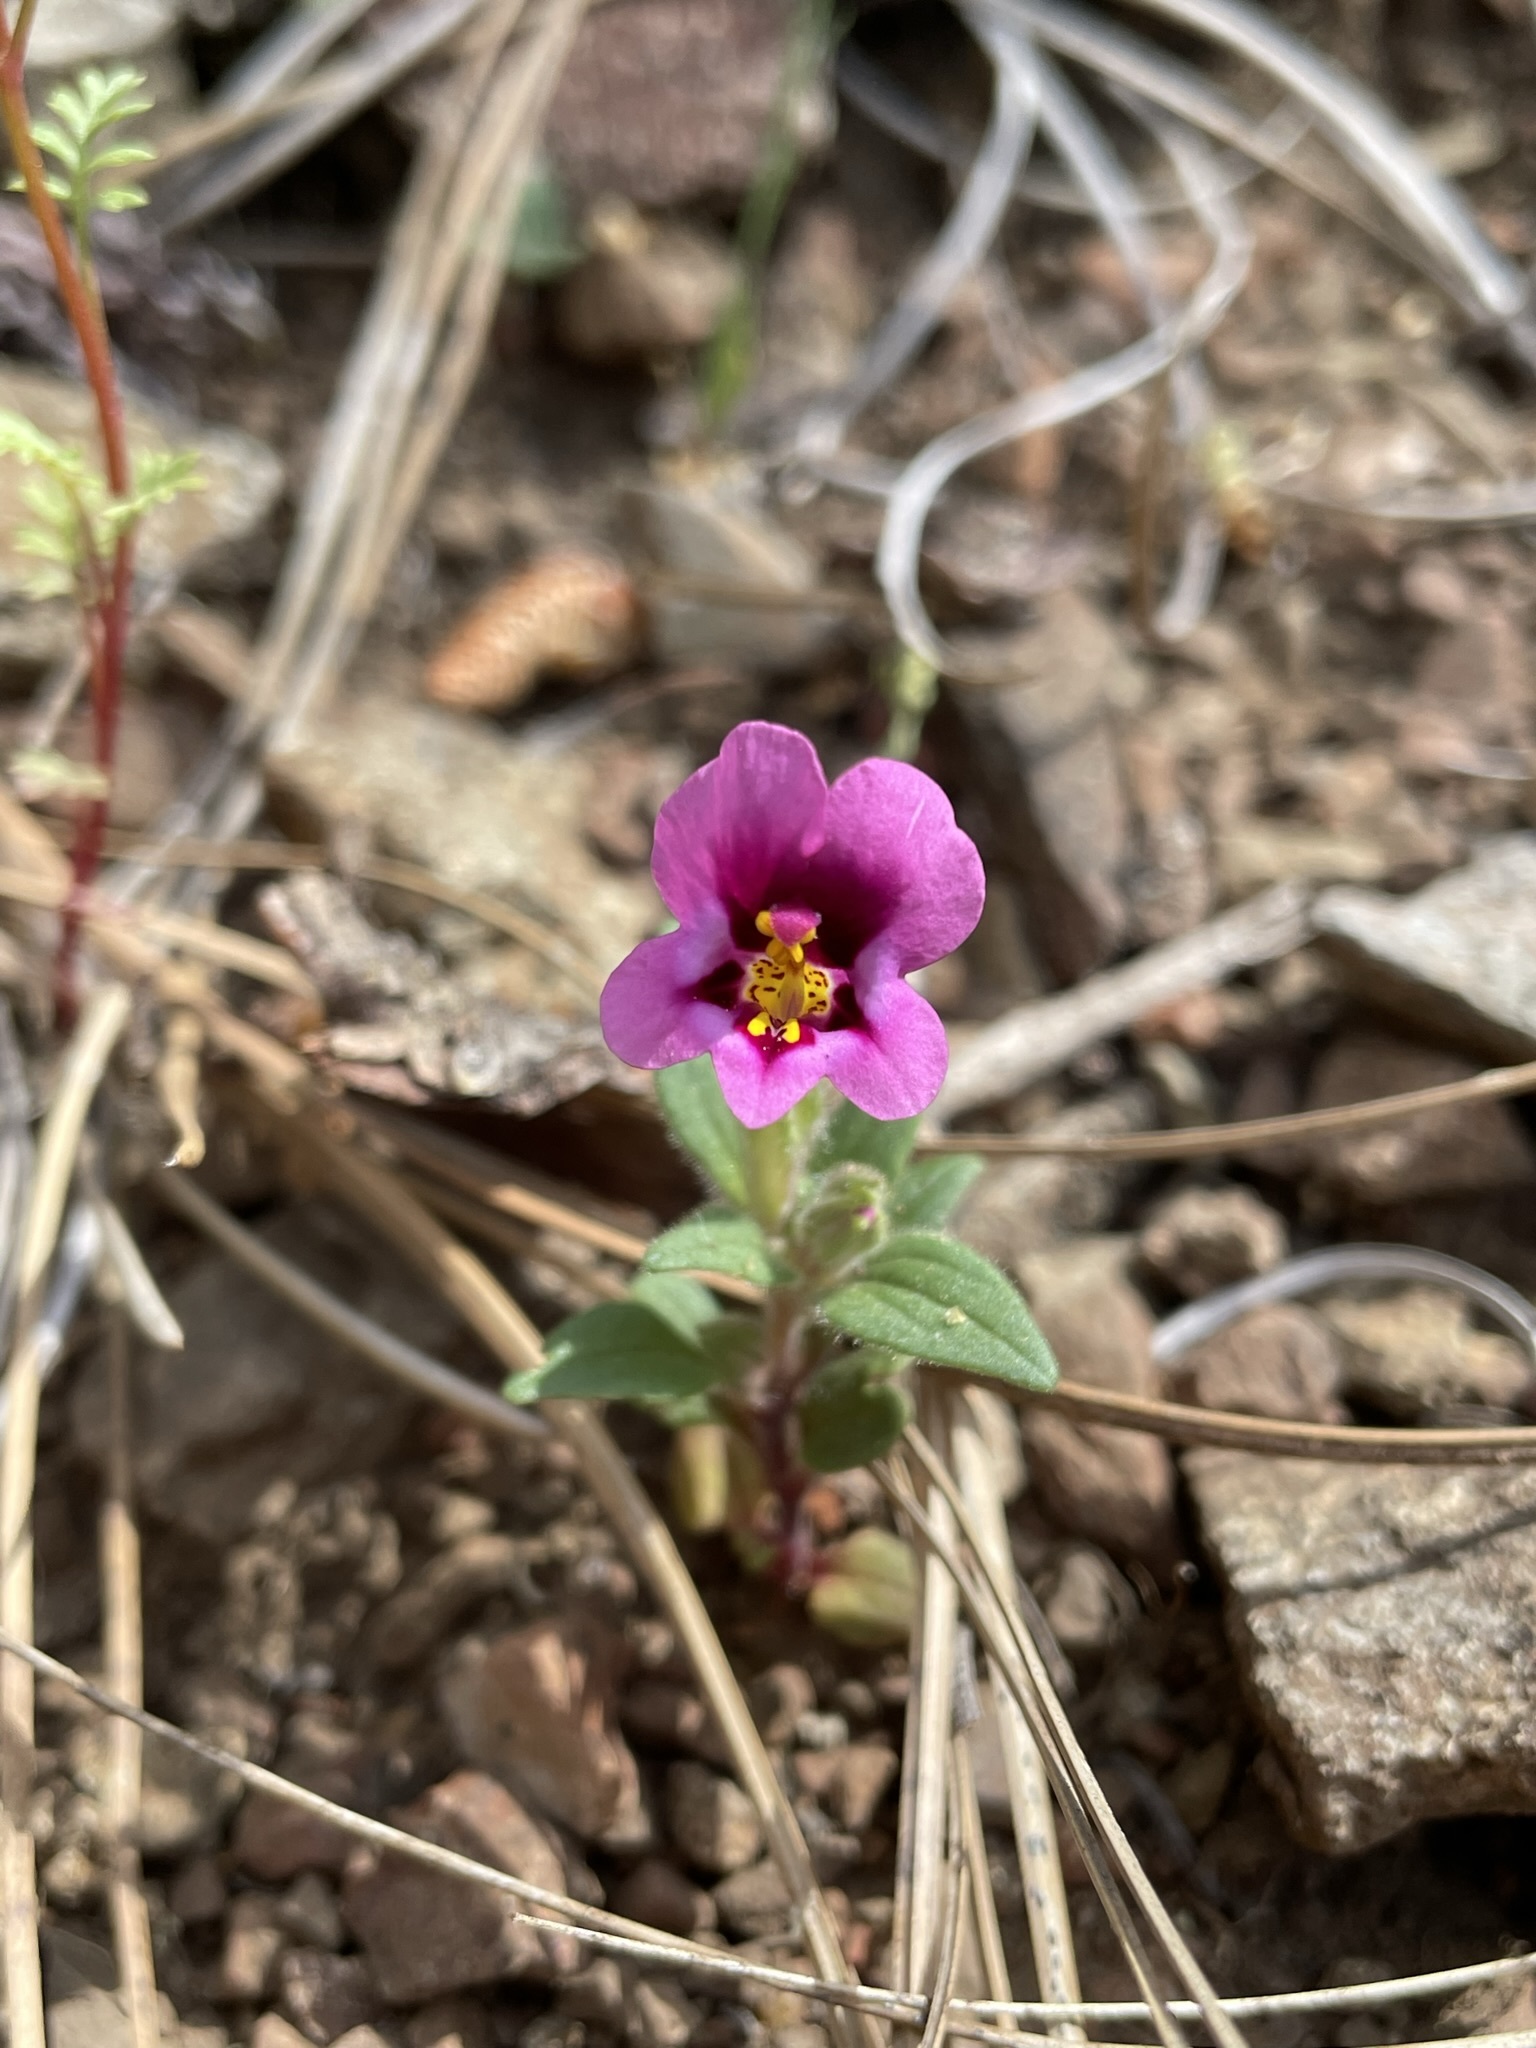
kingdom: Plantae
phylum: Tracheophyta
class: Magnoliopsida
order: Lamiales
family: Phrymaceae
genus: Diplacus
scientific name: Diplacus kelloggii
